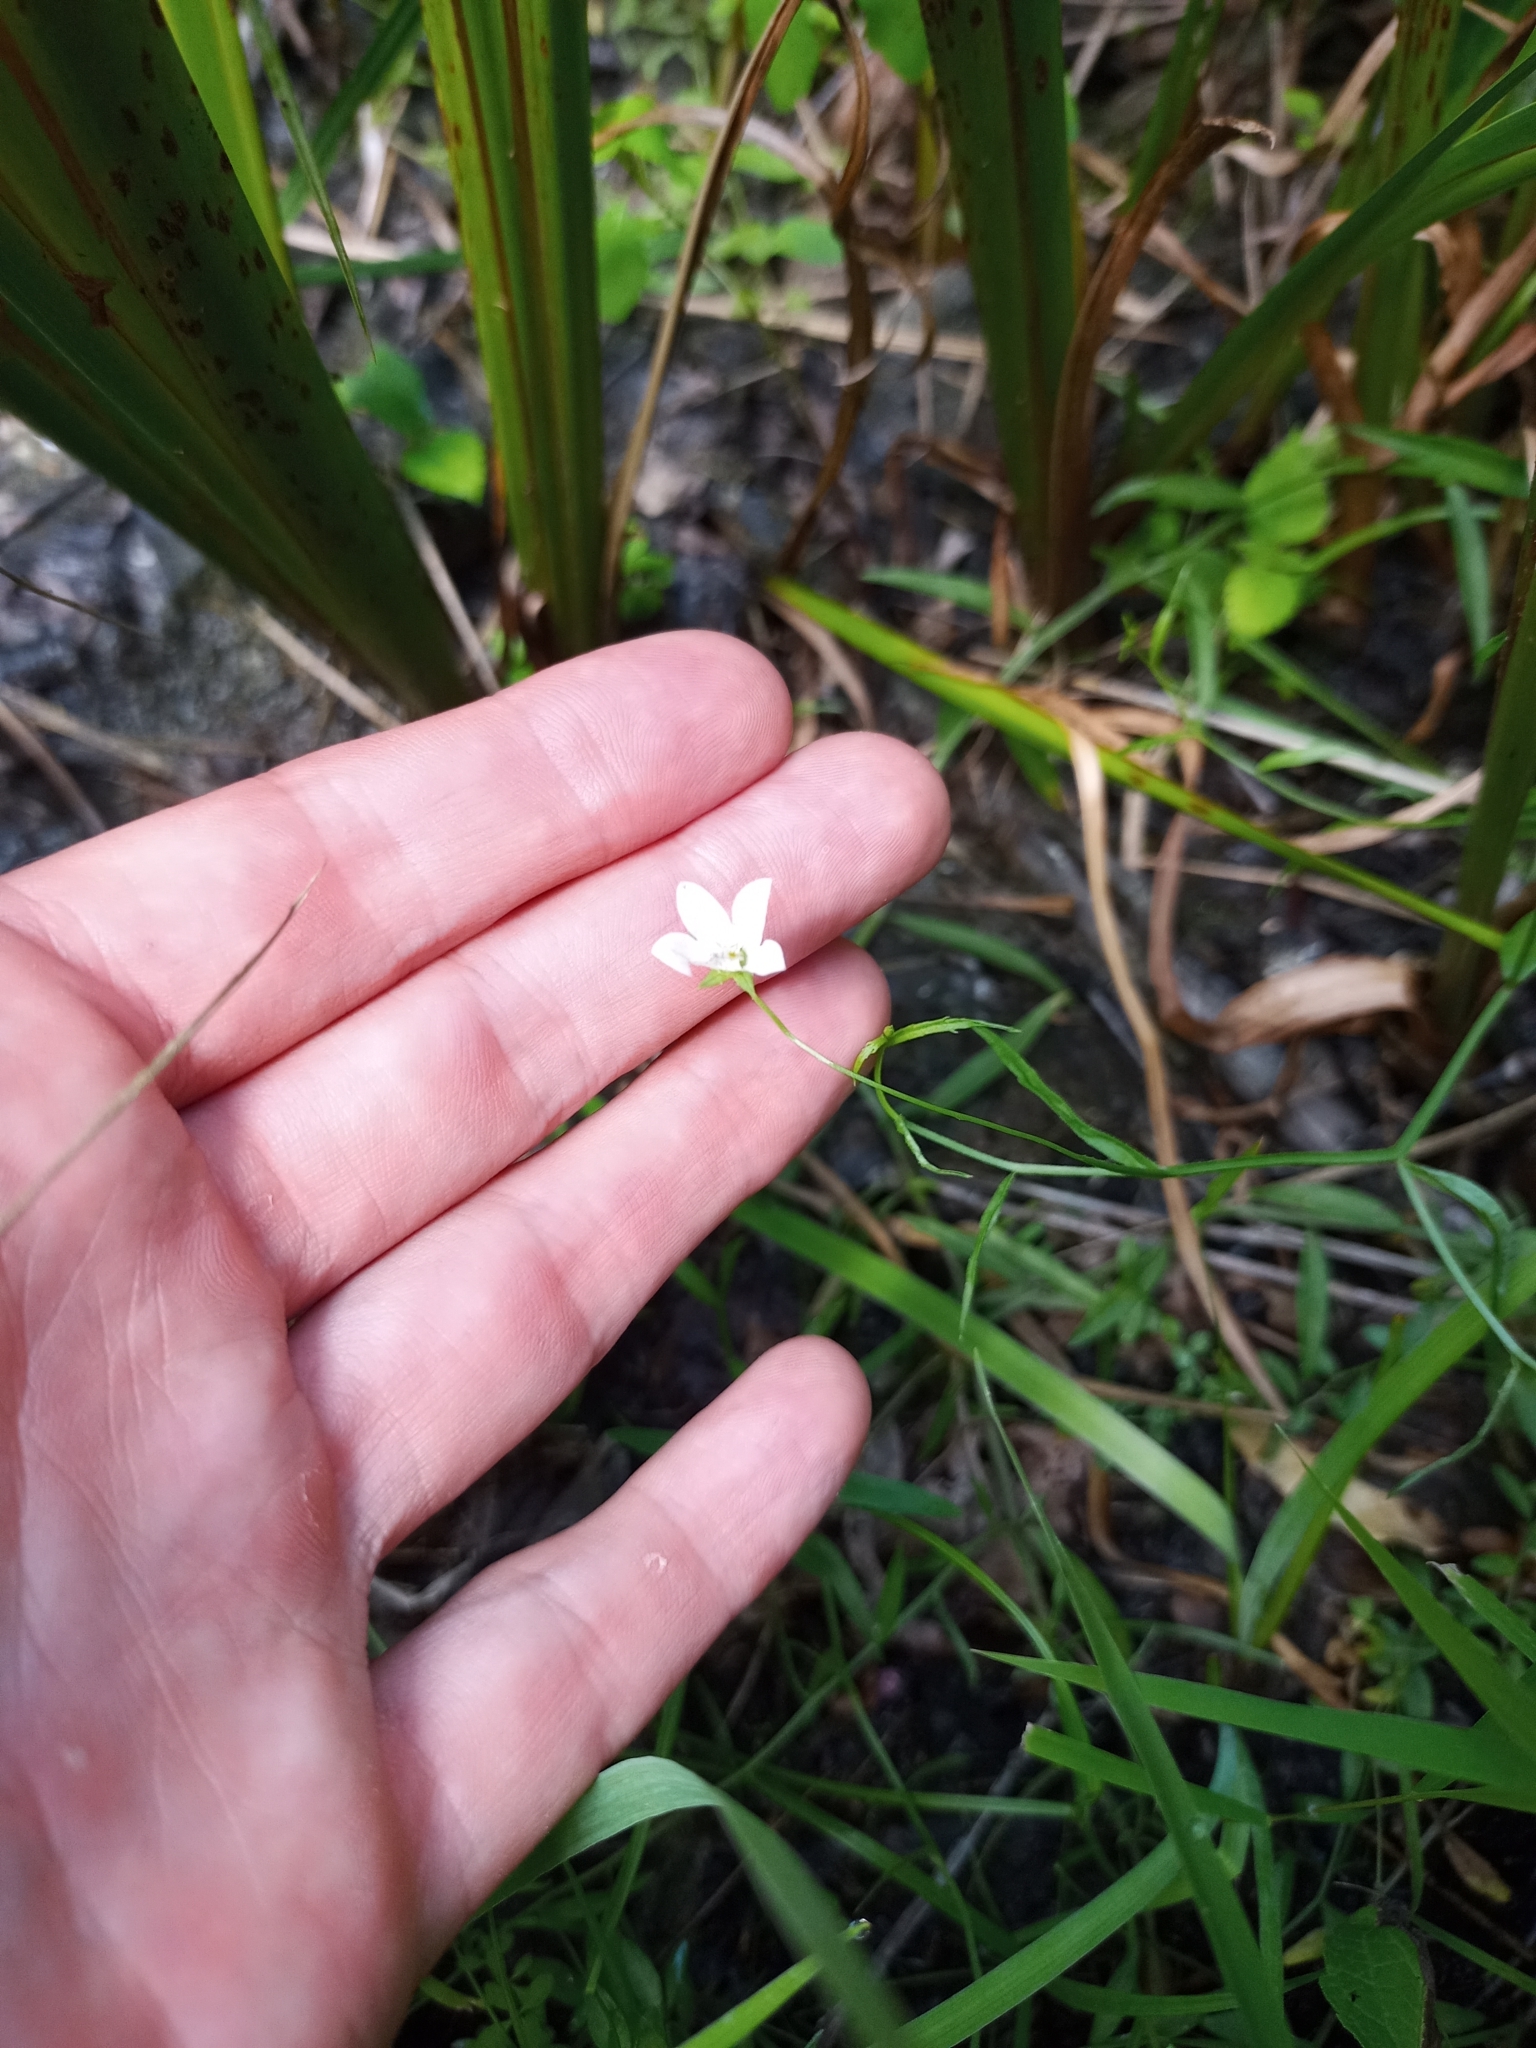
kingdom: Plantae
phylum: Tracheophyta
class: Magnoliopsida
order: Asterales
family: Campanulaceae
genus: Palustricodon
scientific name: Palustricodon aparinoides
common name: Bedstraw bellflower
